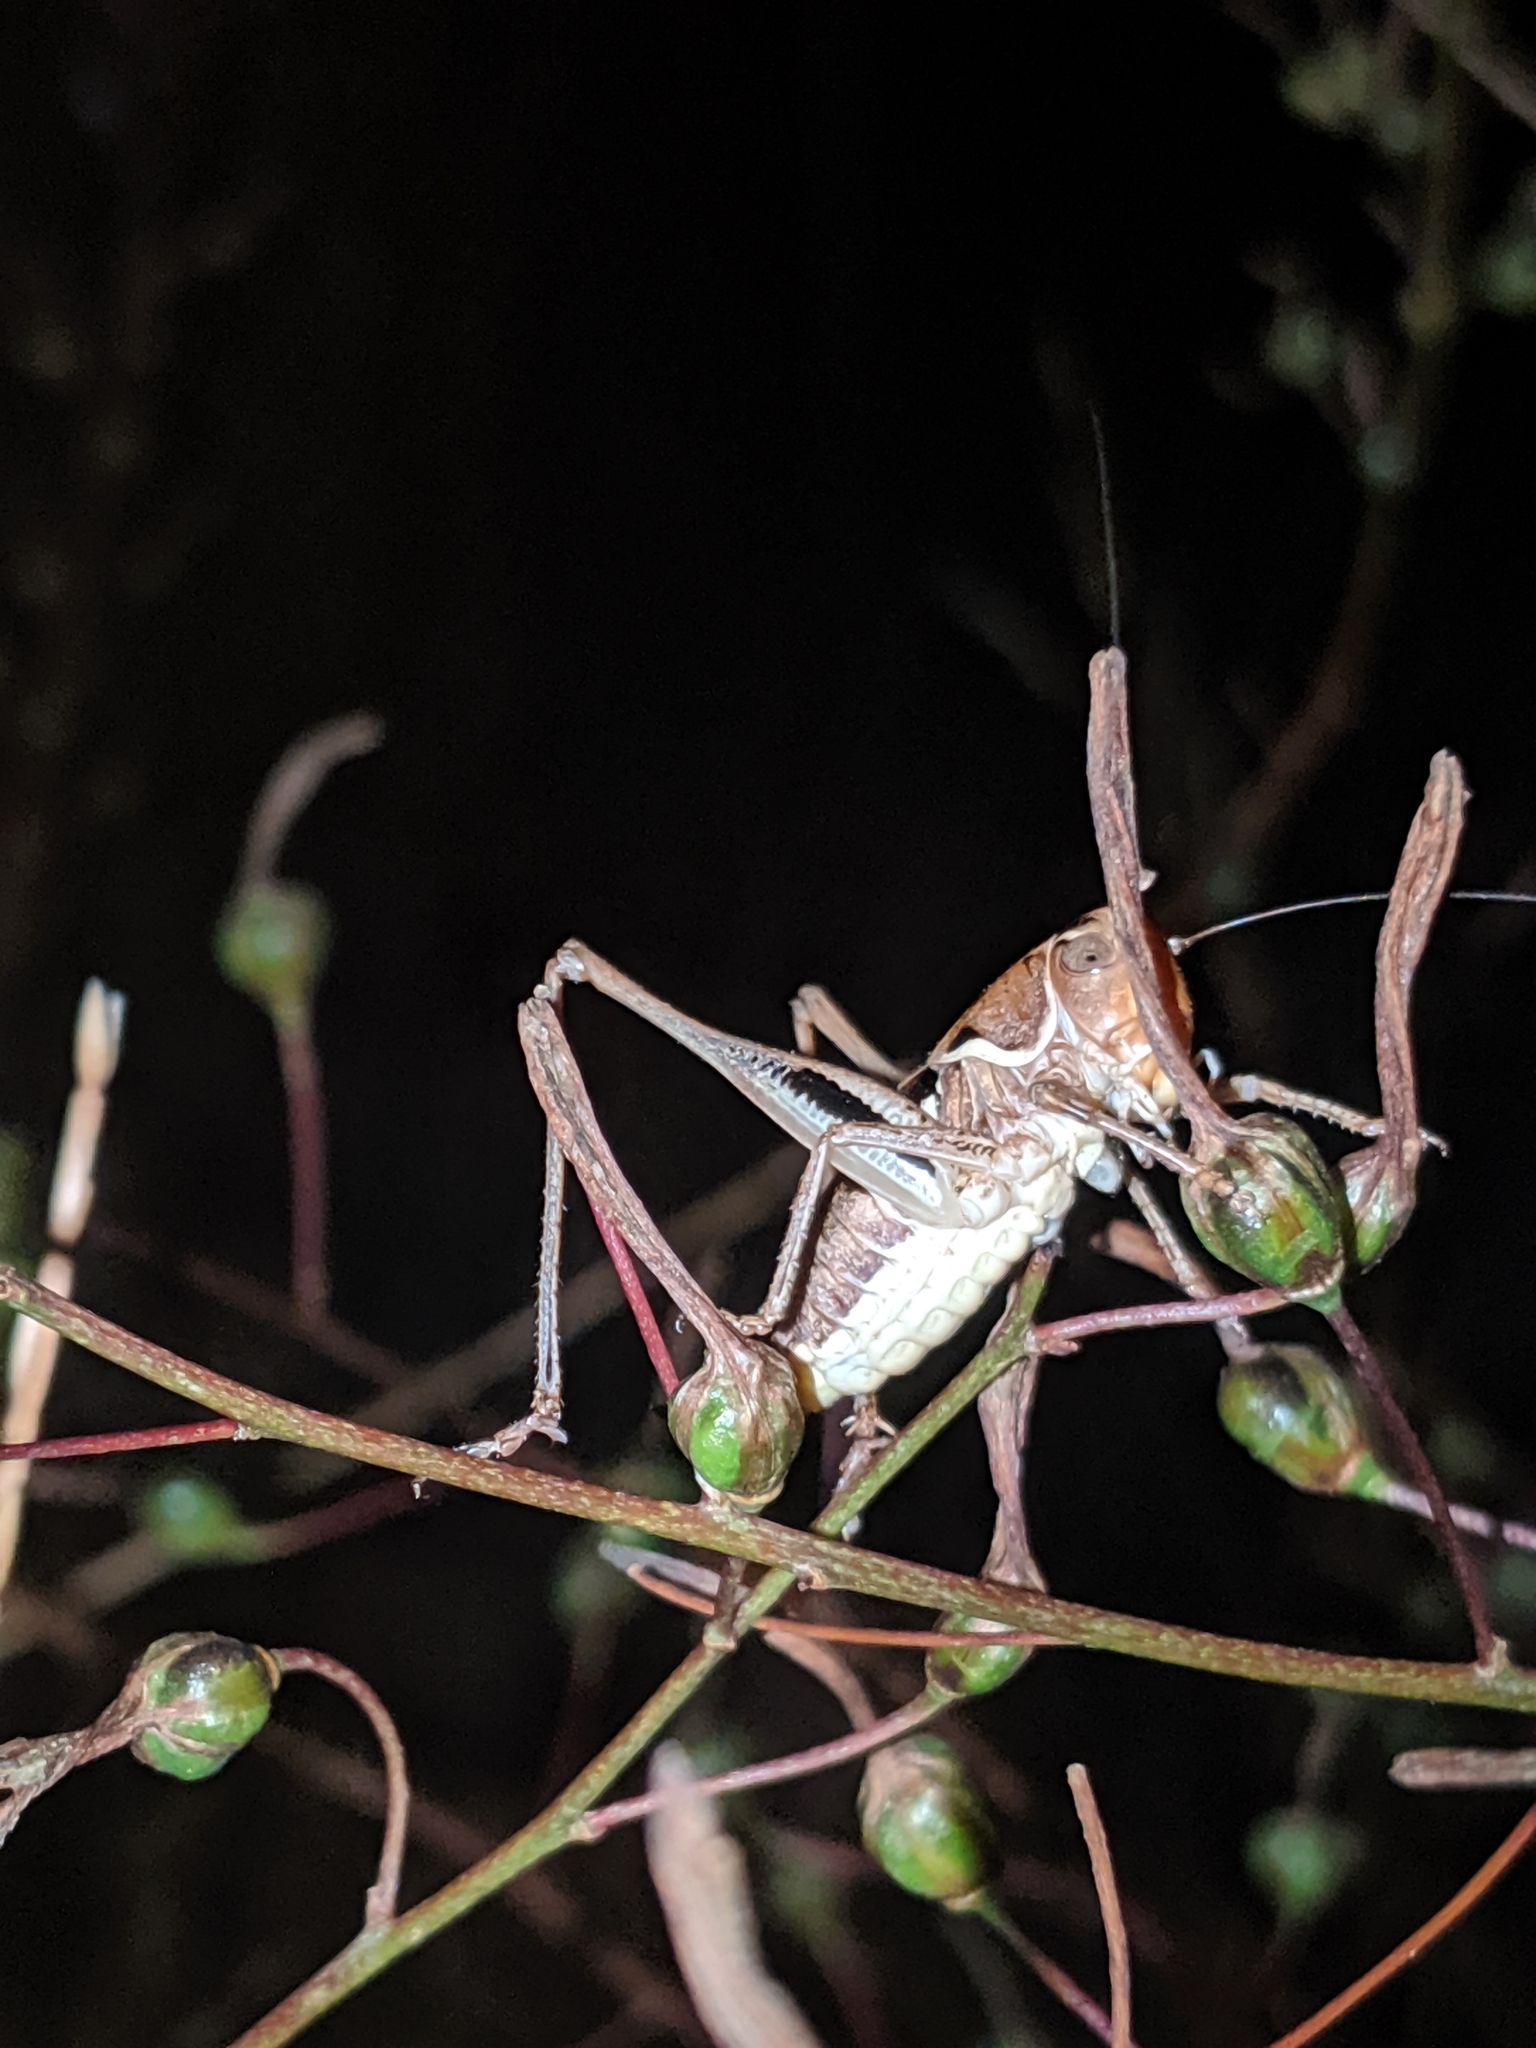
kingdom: Animalia
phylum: Arthropoda
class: Insecta
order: Orthoptera
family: Tettigoniidae
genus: Decticita
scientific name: Decticita balli
